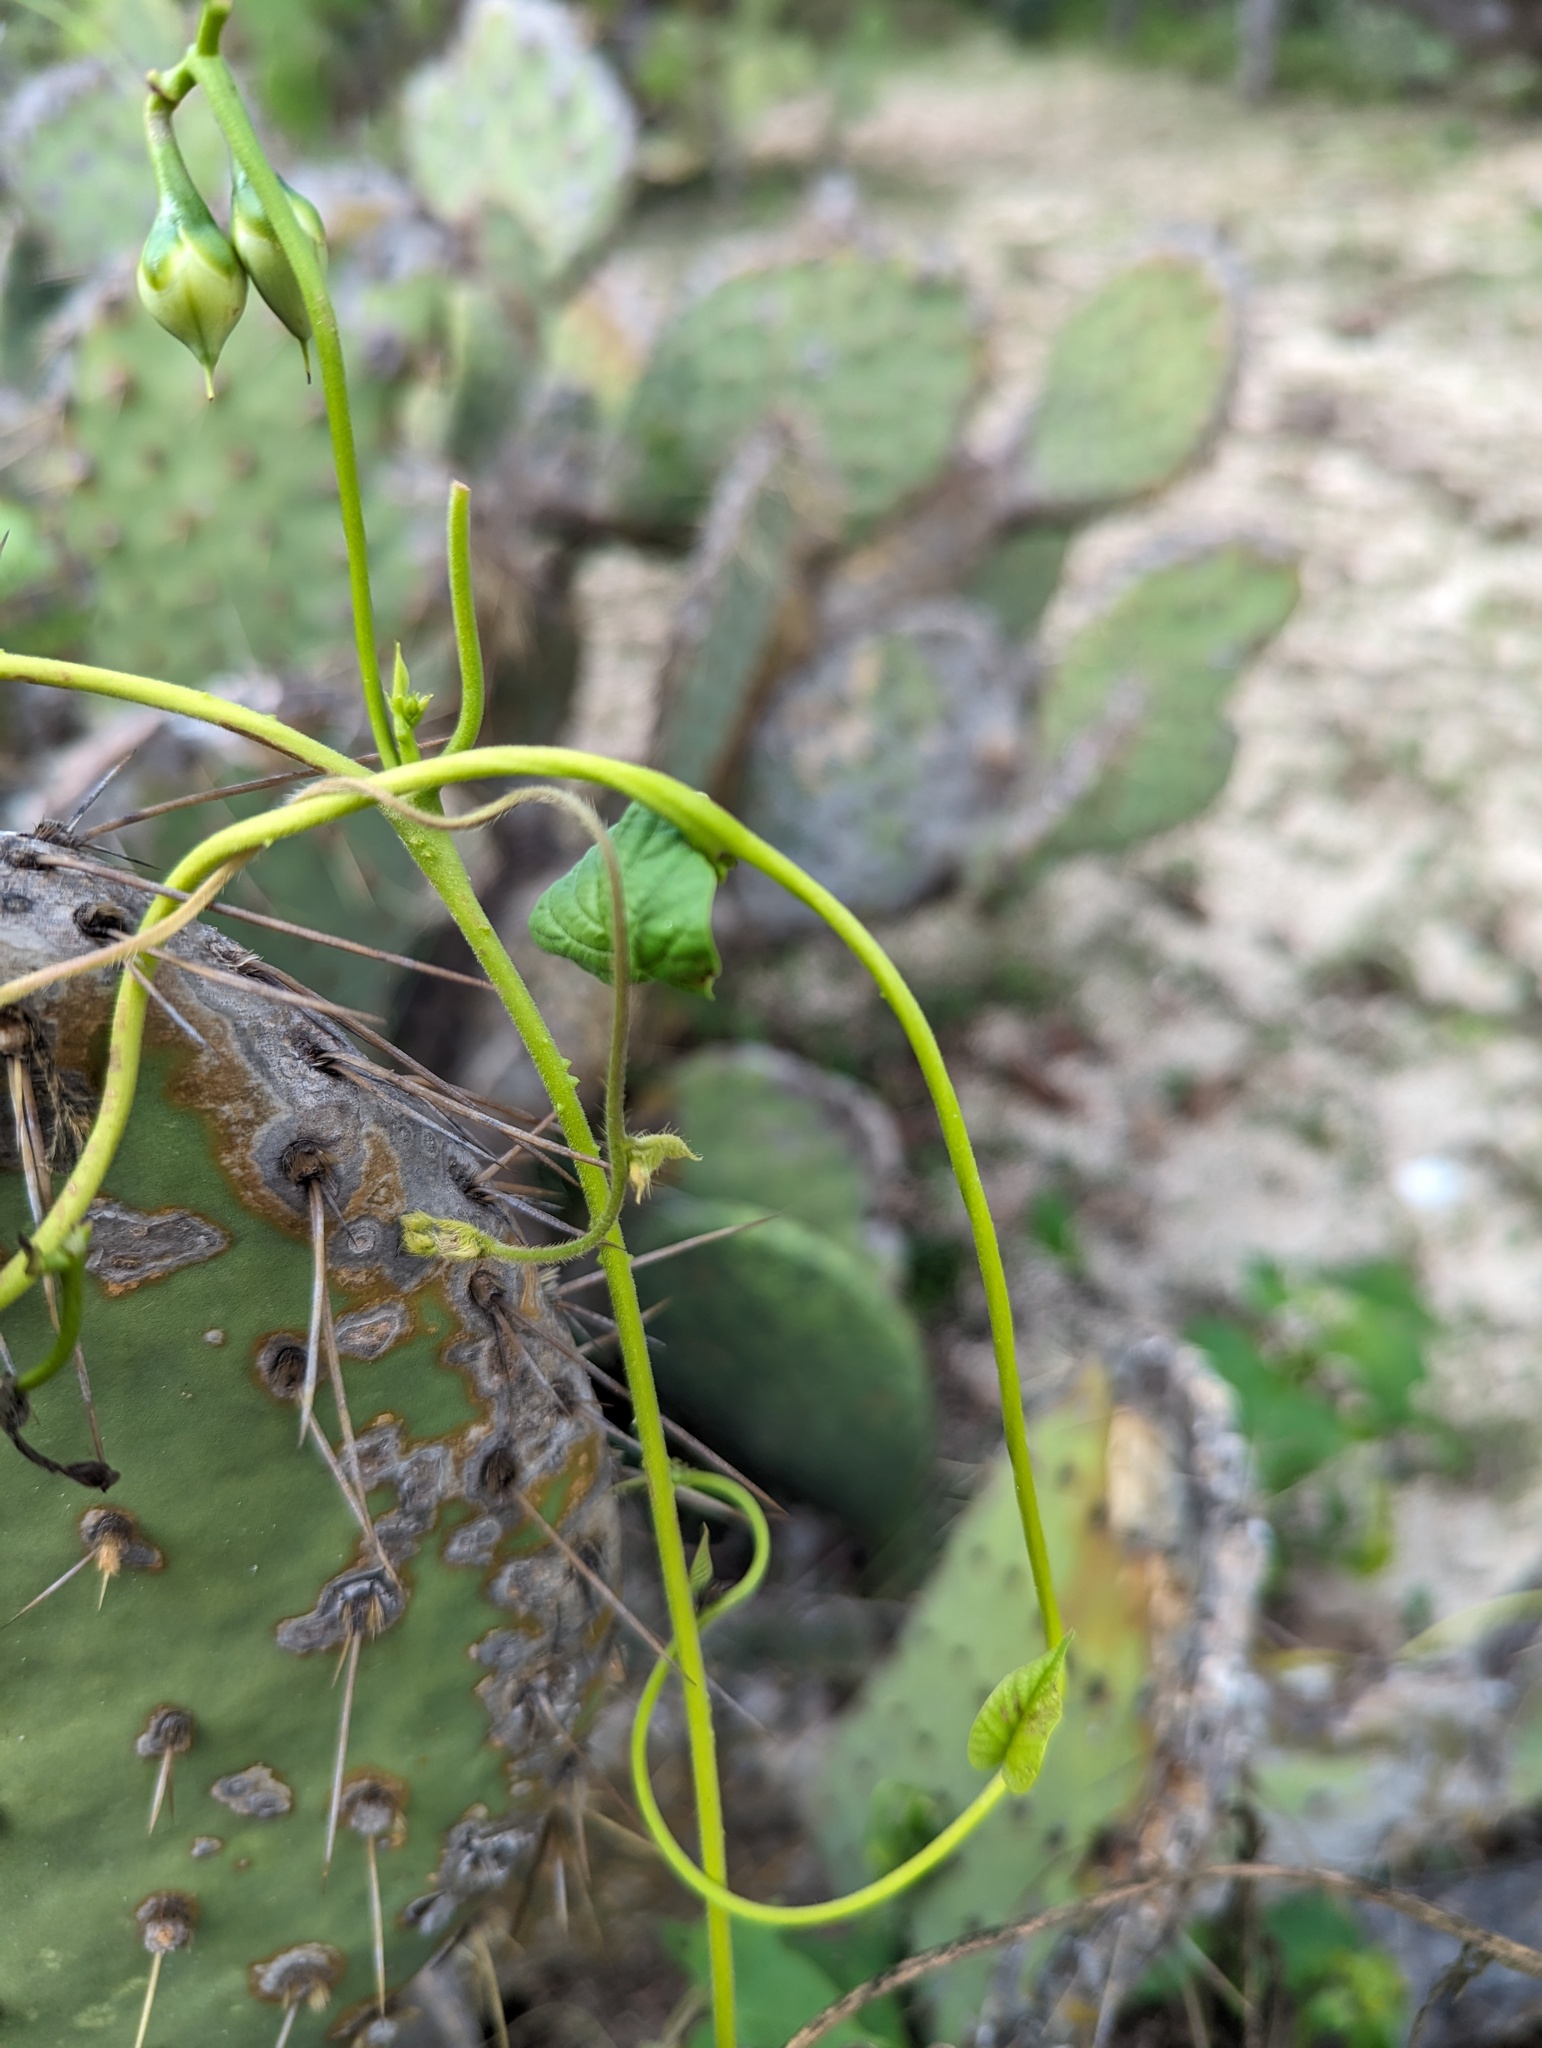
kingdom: Plantae
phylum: Tracheophyta
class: Magnoliopsida
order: Solanales
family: Convolvulaceae
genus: Ipomoea
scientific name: Ipomoea parasitica
